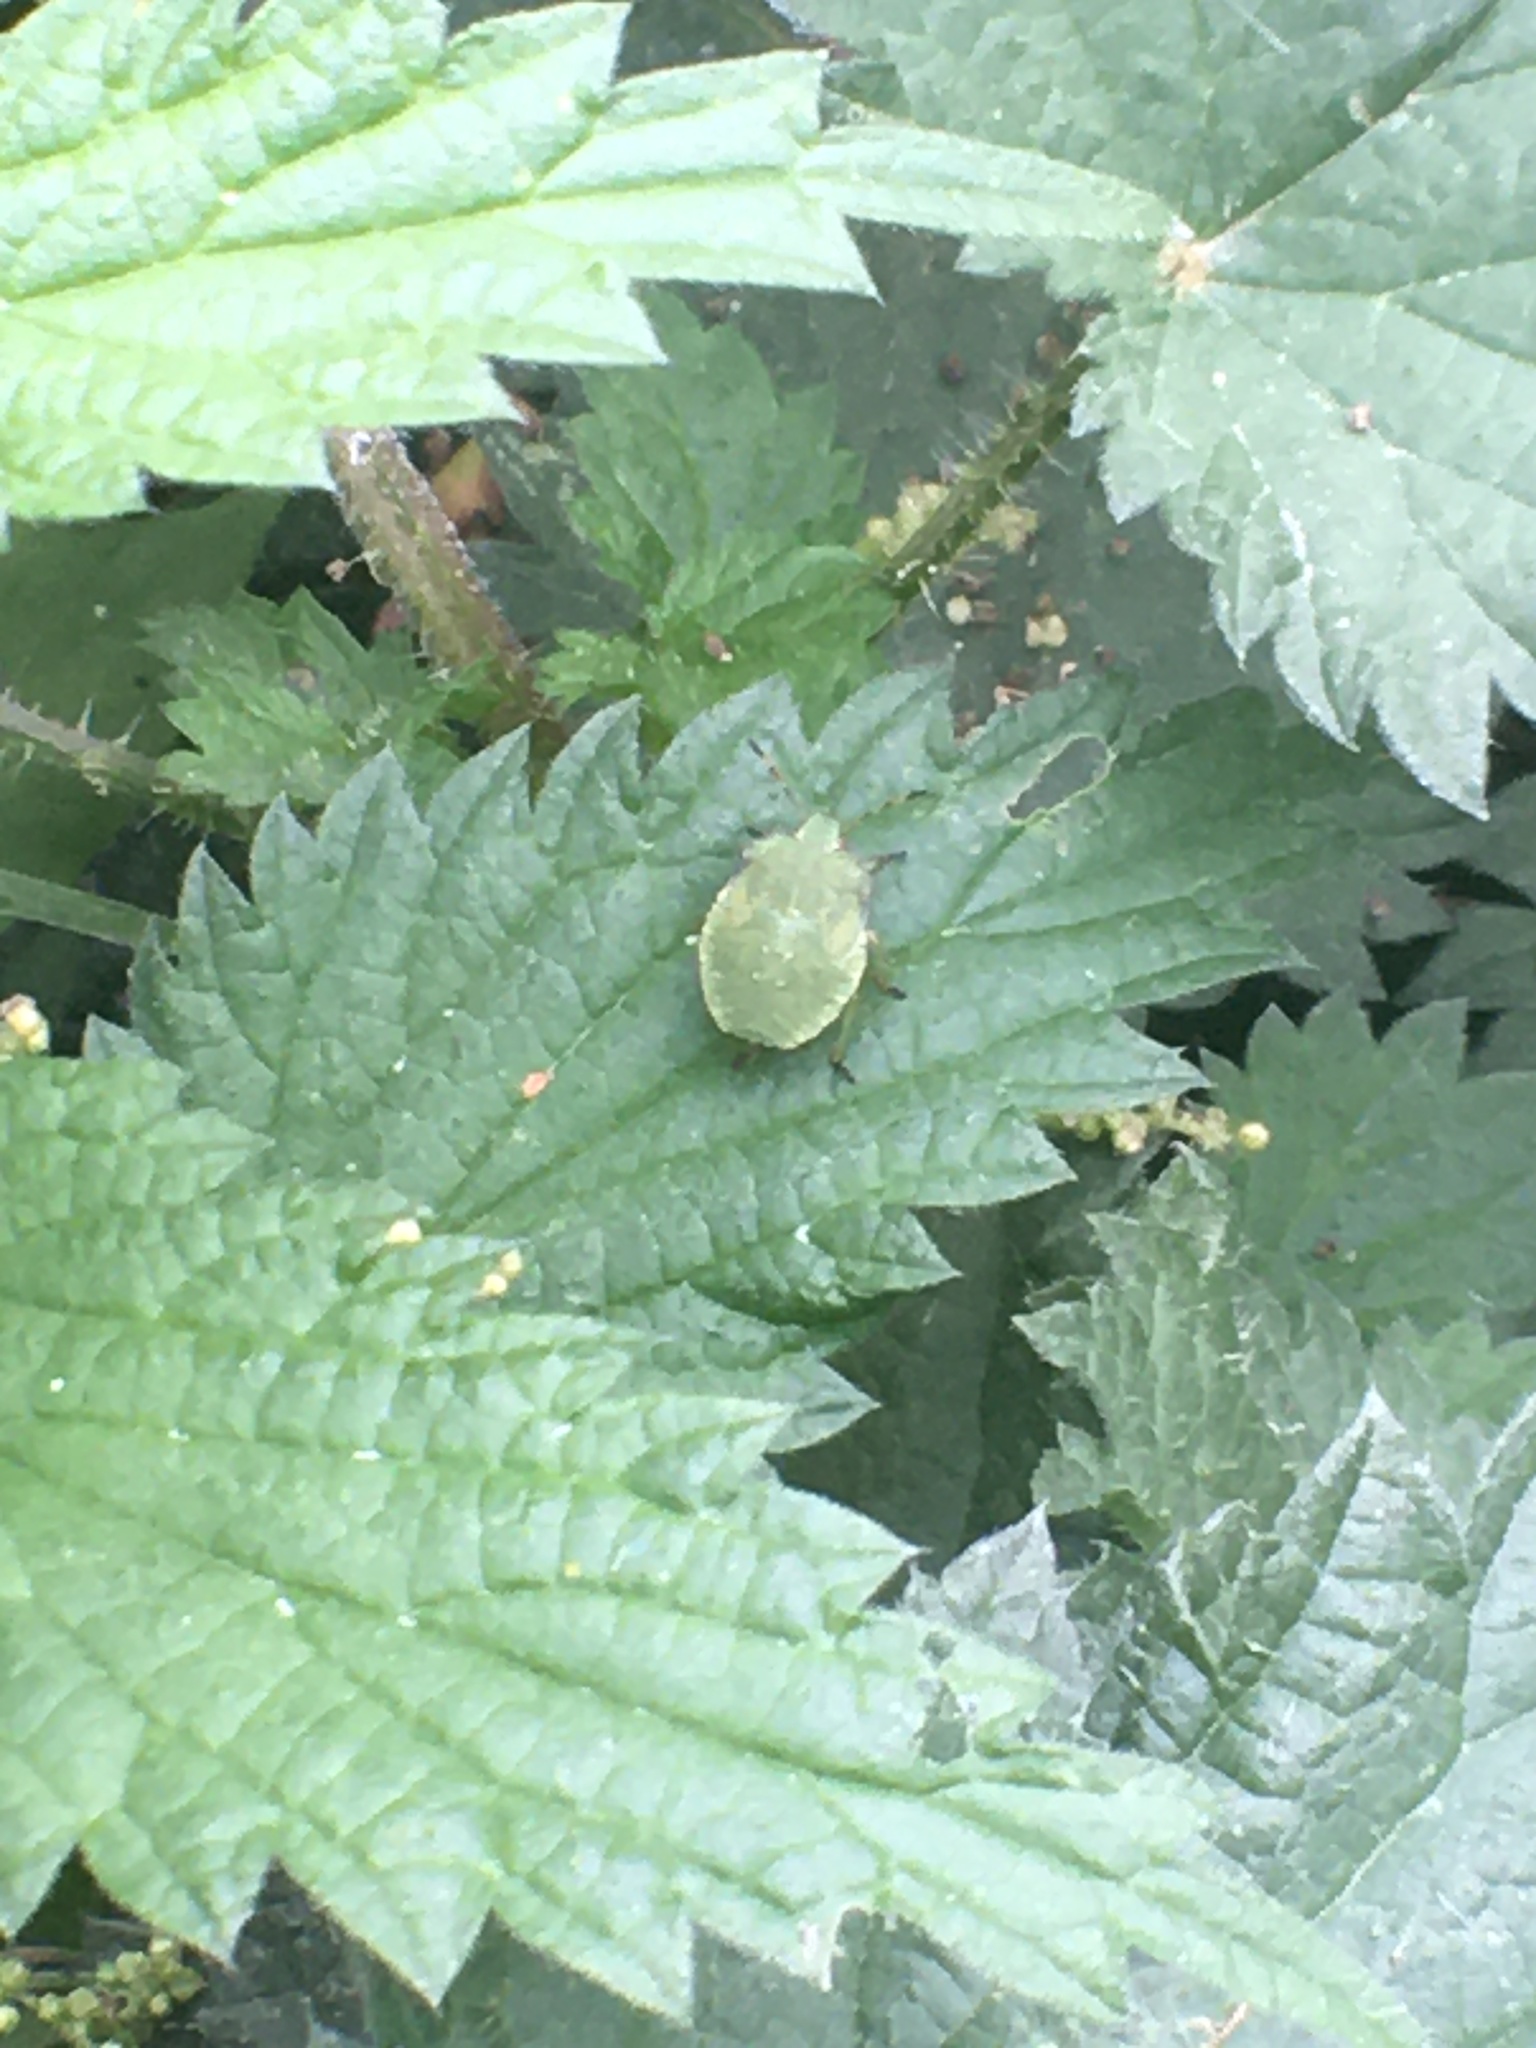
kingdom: Animalia
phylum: Arthropoda
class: Insecta
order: Hemiptera
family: Pentatomidae
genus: Palomena
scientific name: Palomena prasina
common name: Green shieldbug
